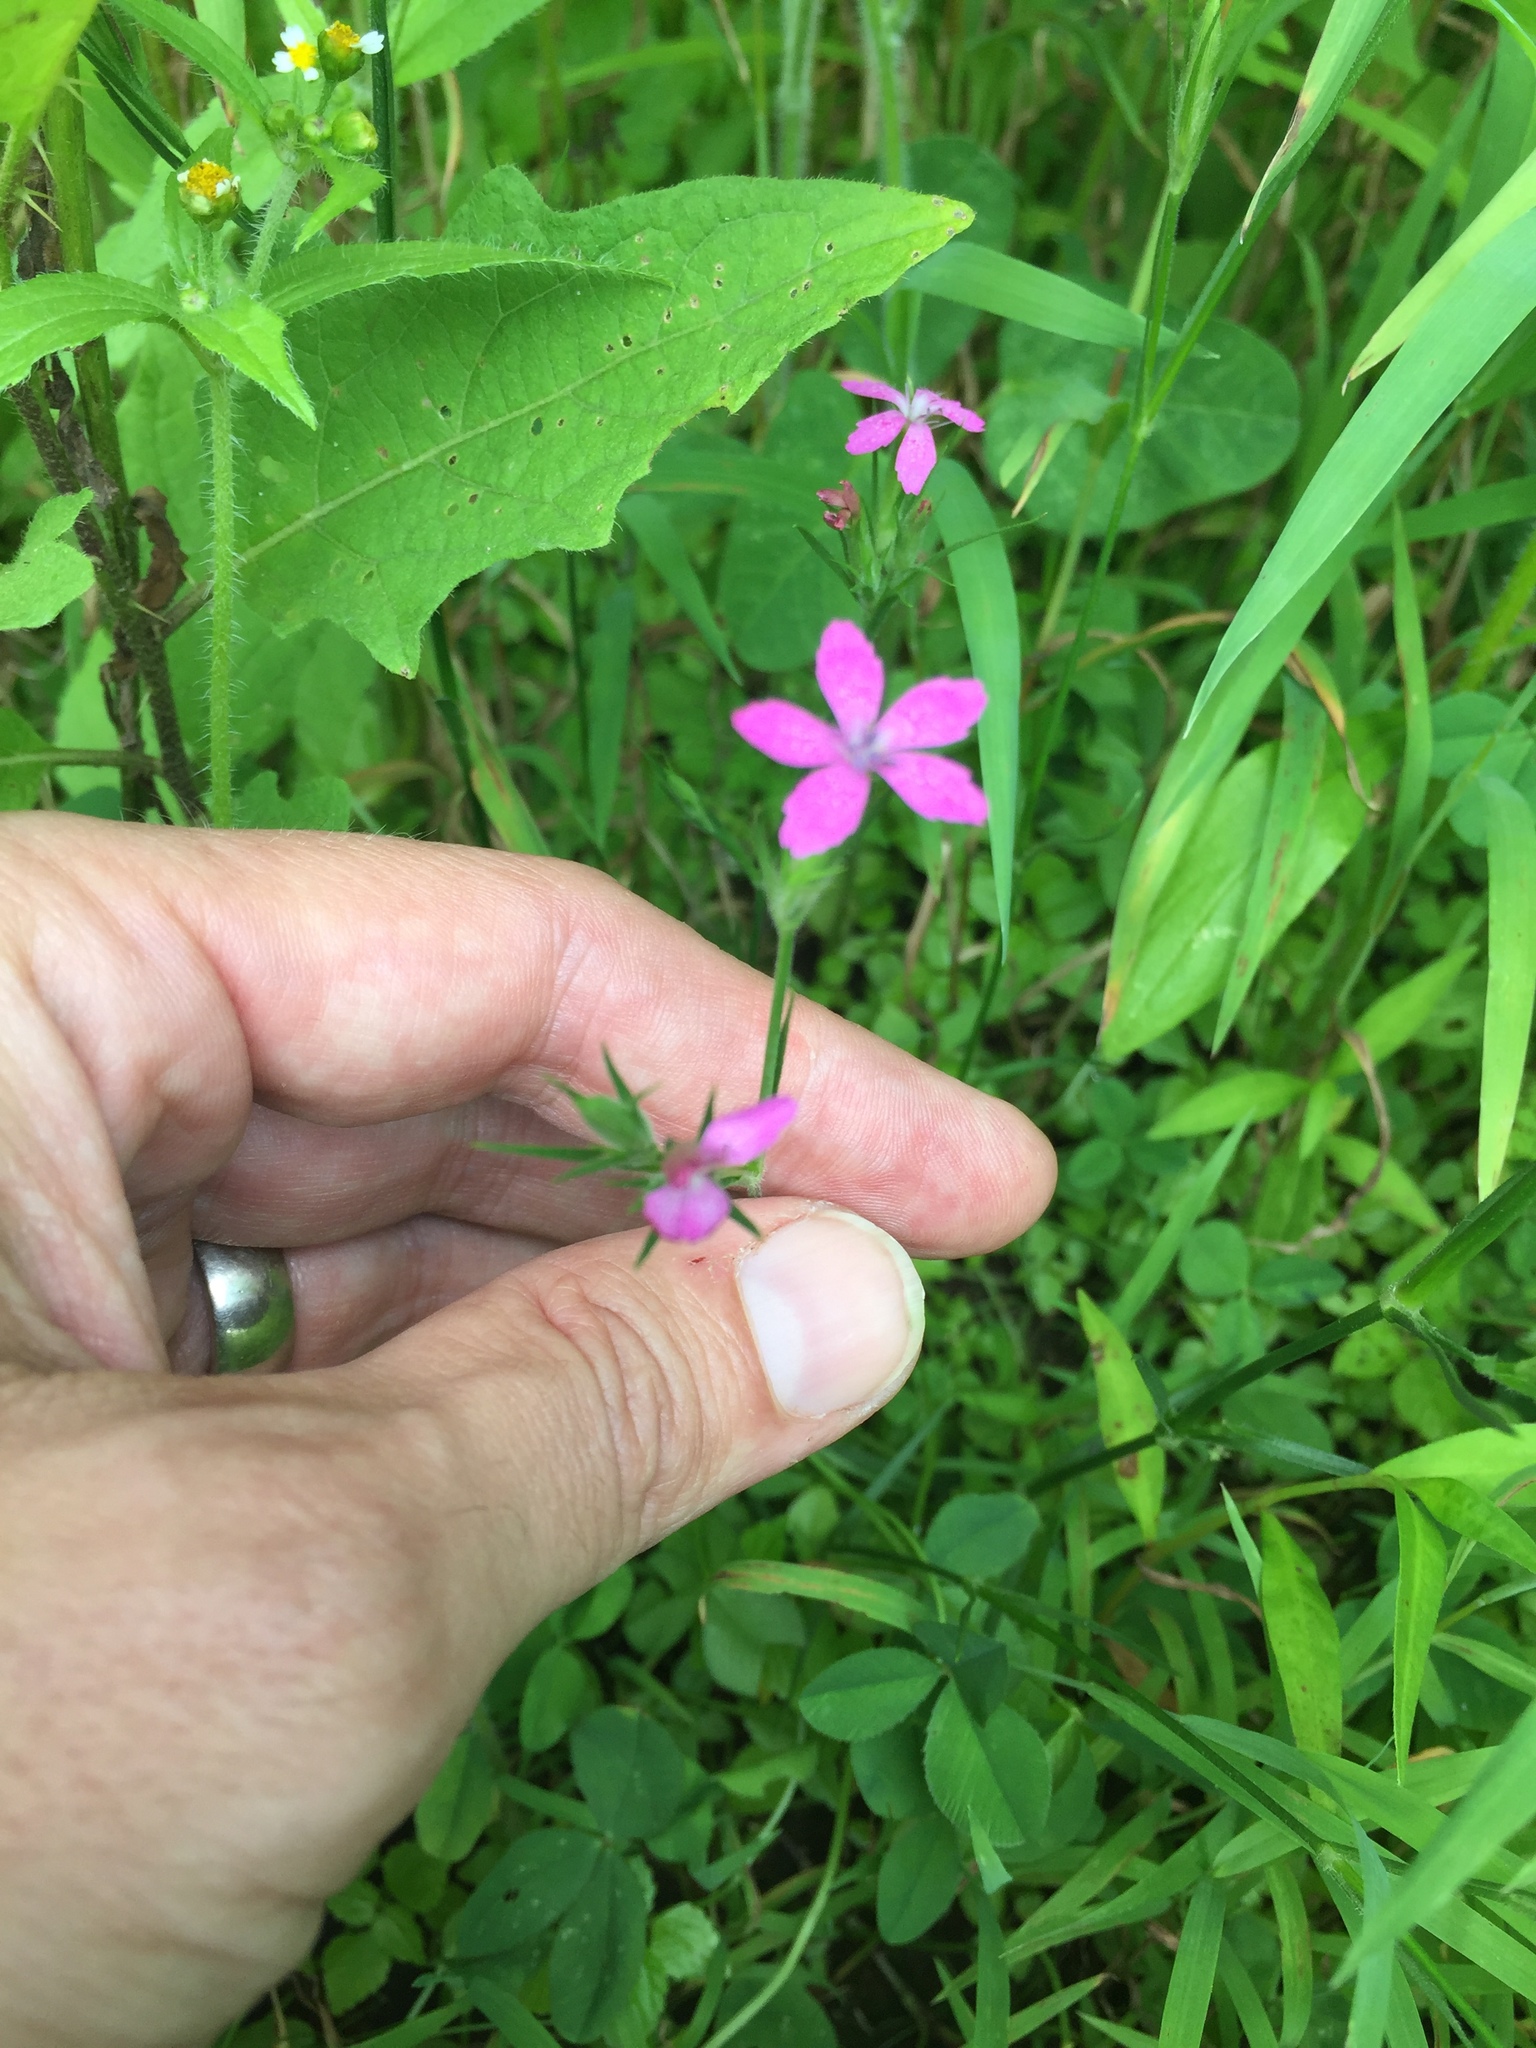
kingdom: Plantae
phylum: Tracheophyta
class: Magnoliopsida
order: Caryophyllales
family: Caryophyllaceae
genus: Dianthus
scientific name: Dianthus armeria
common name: Deptford pink
